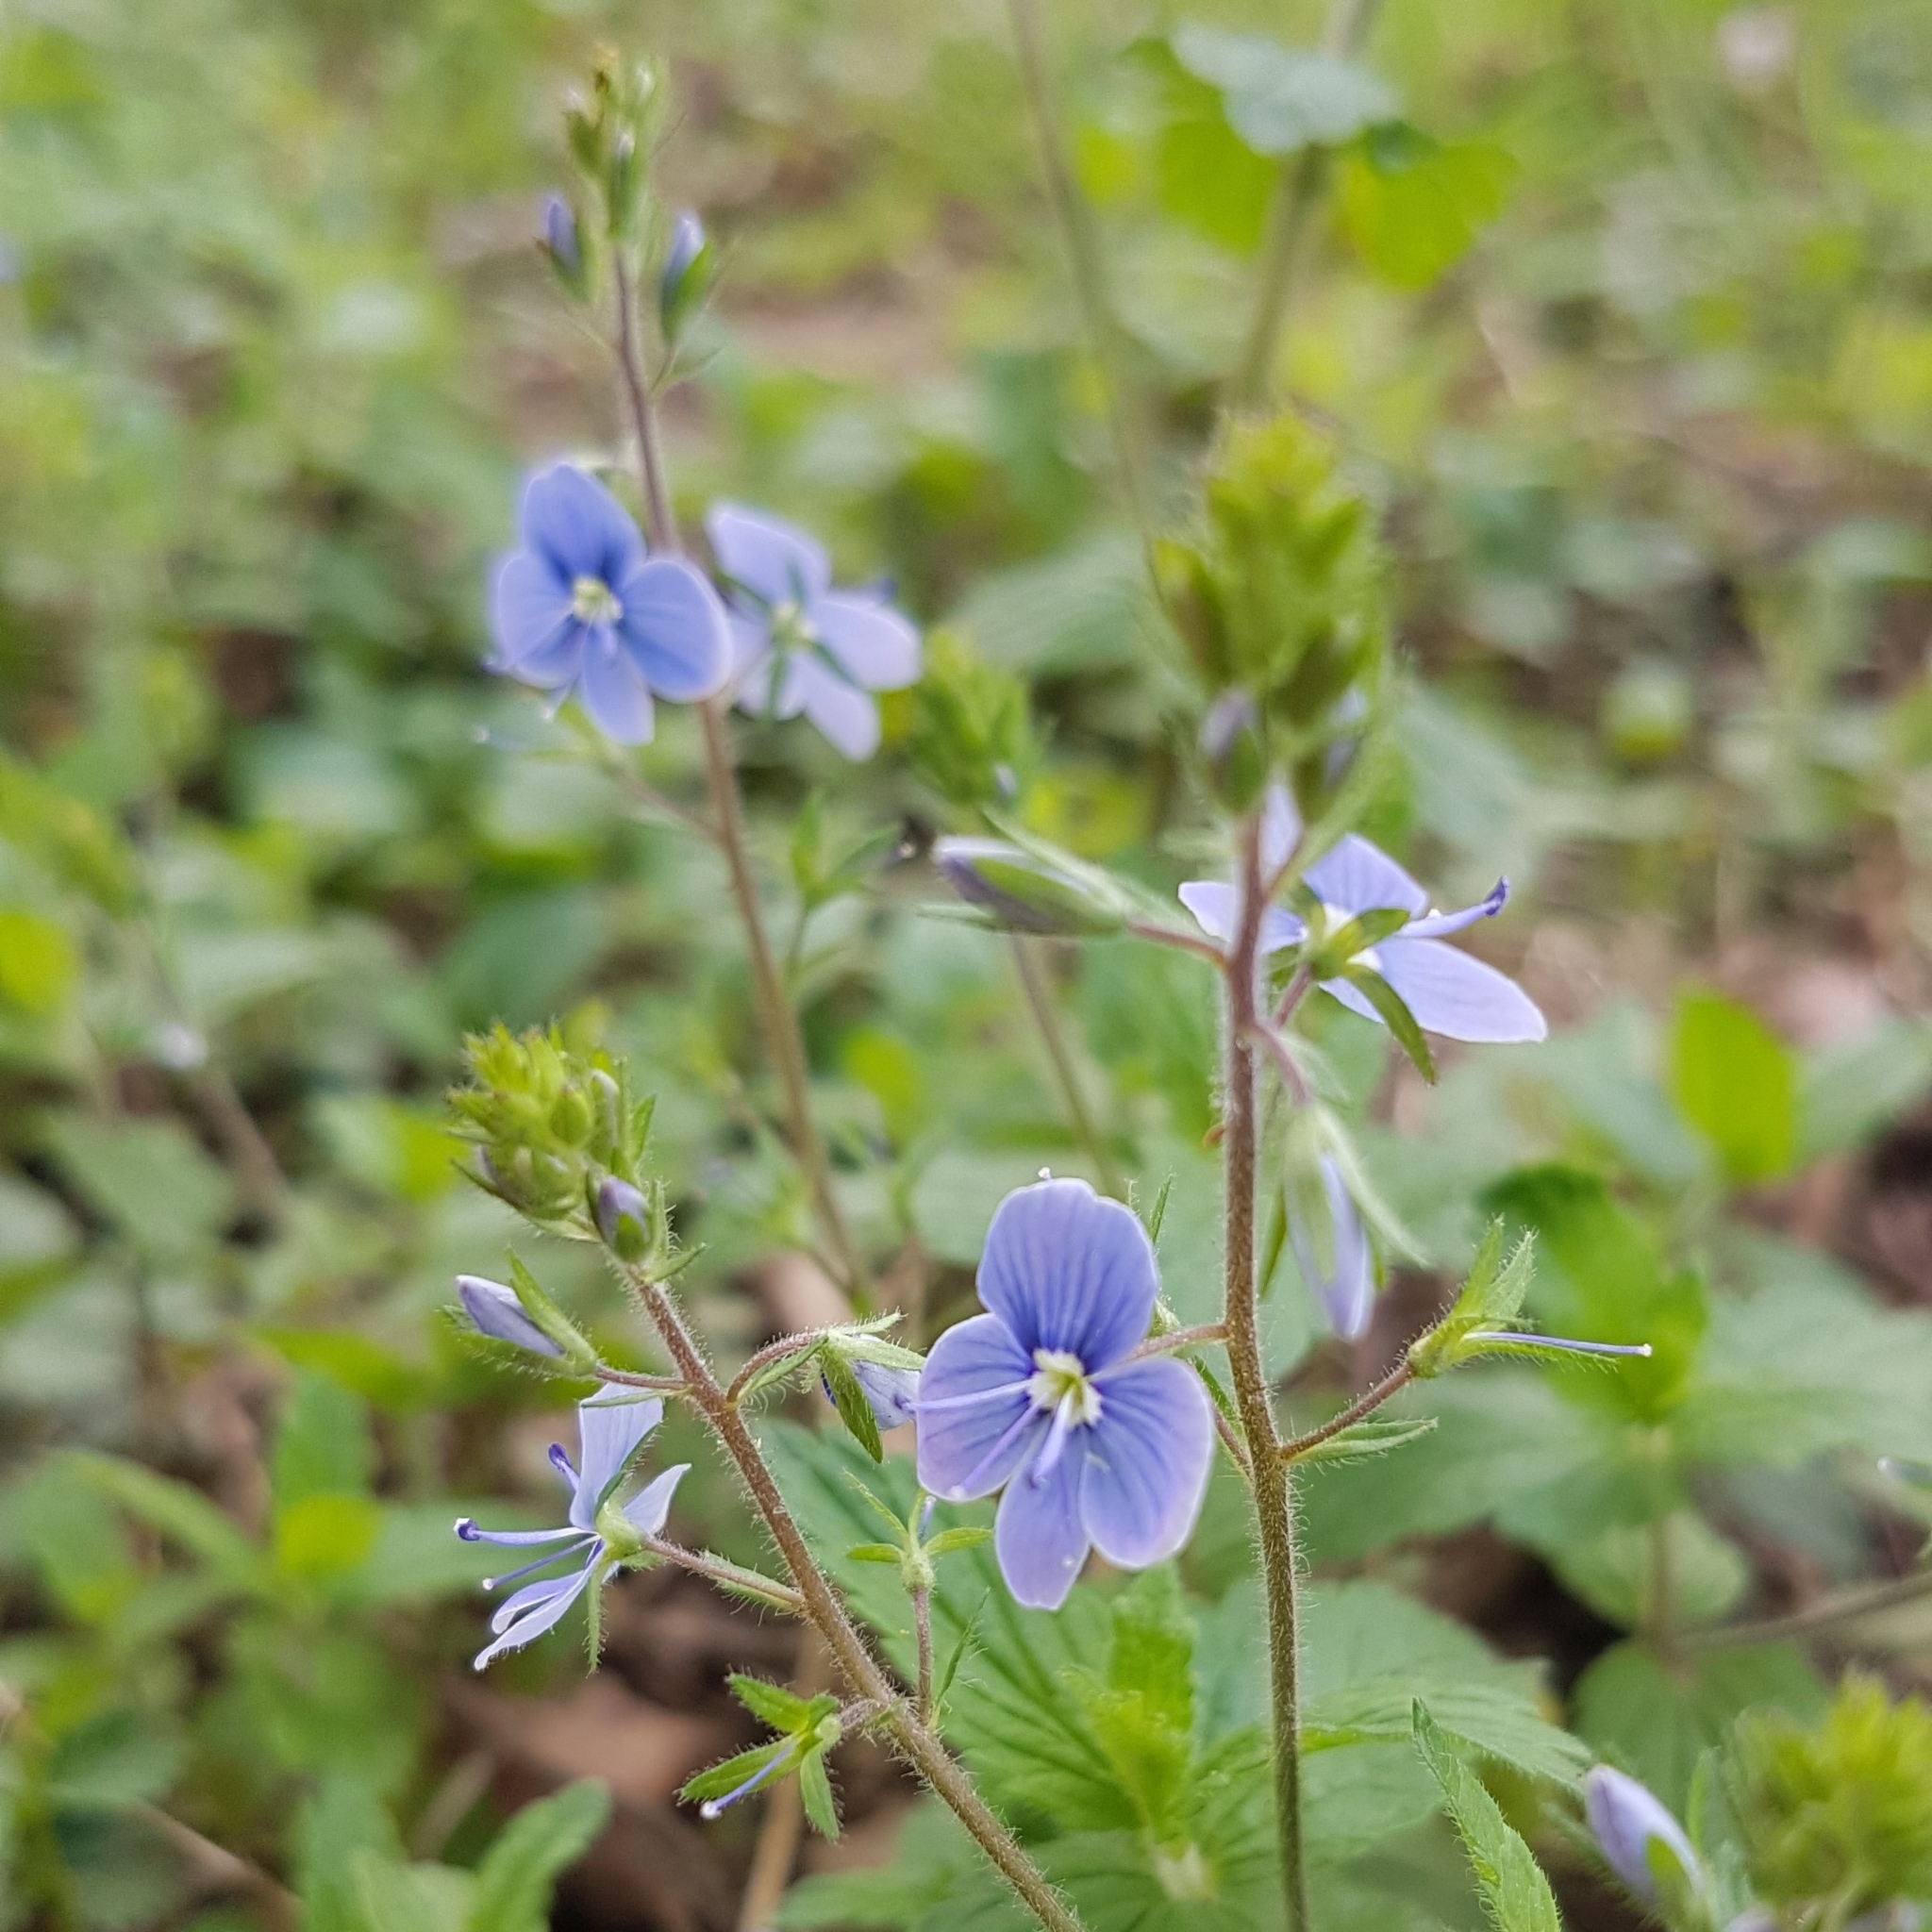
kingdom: Plantae
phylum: Tracheophyta
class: Magnoliopsida
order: Lamiales
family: Plantaginaceae
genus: Veronica
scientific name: Veronica chamaedrys
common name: Germander speedwell
